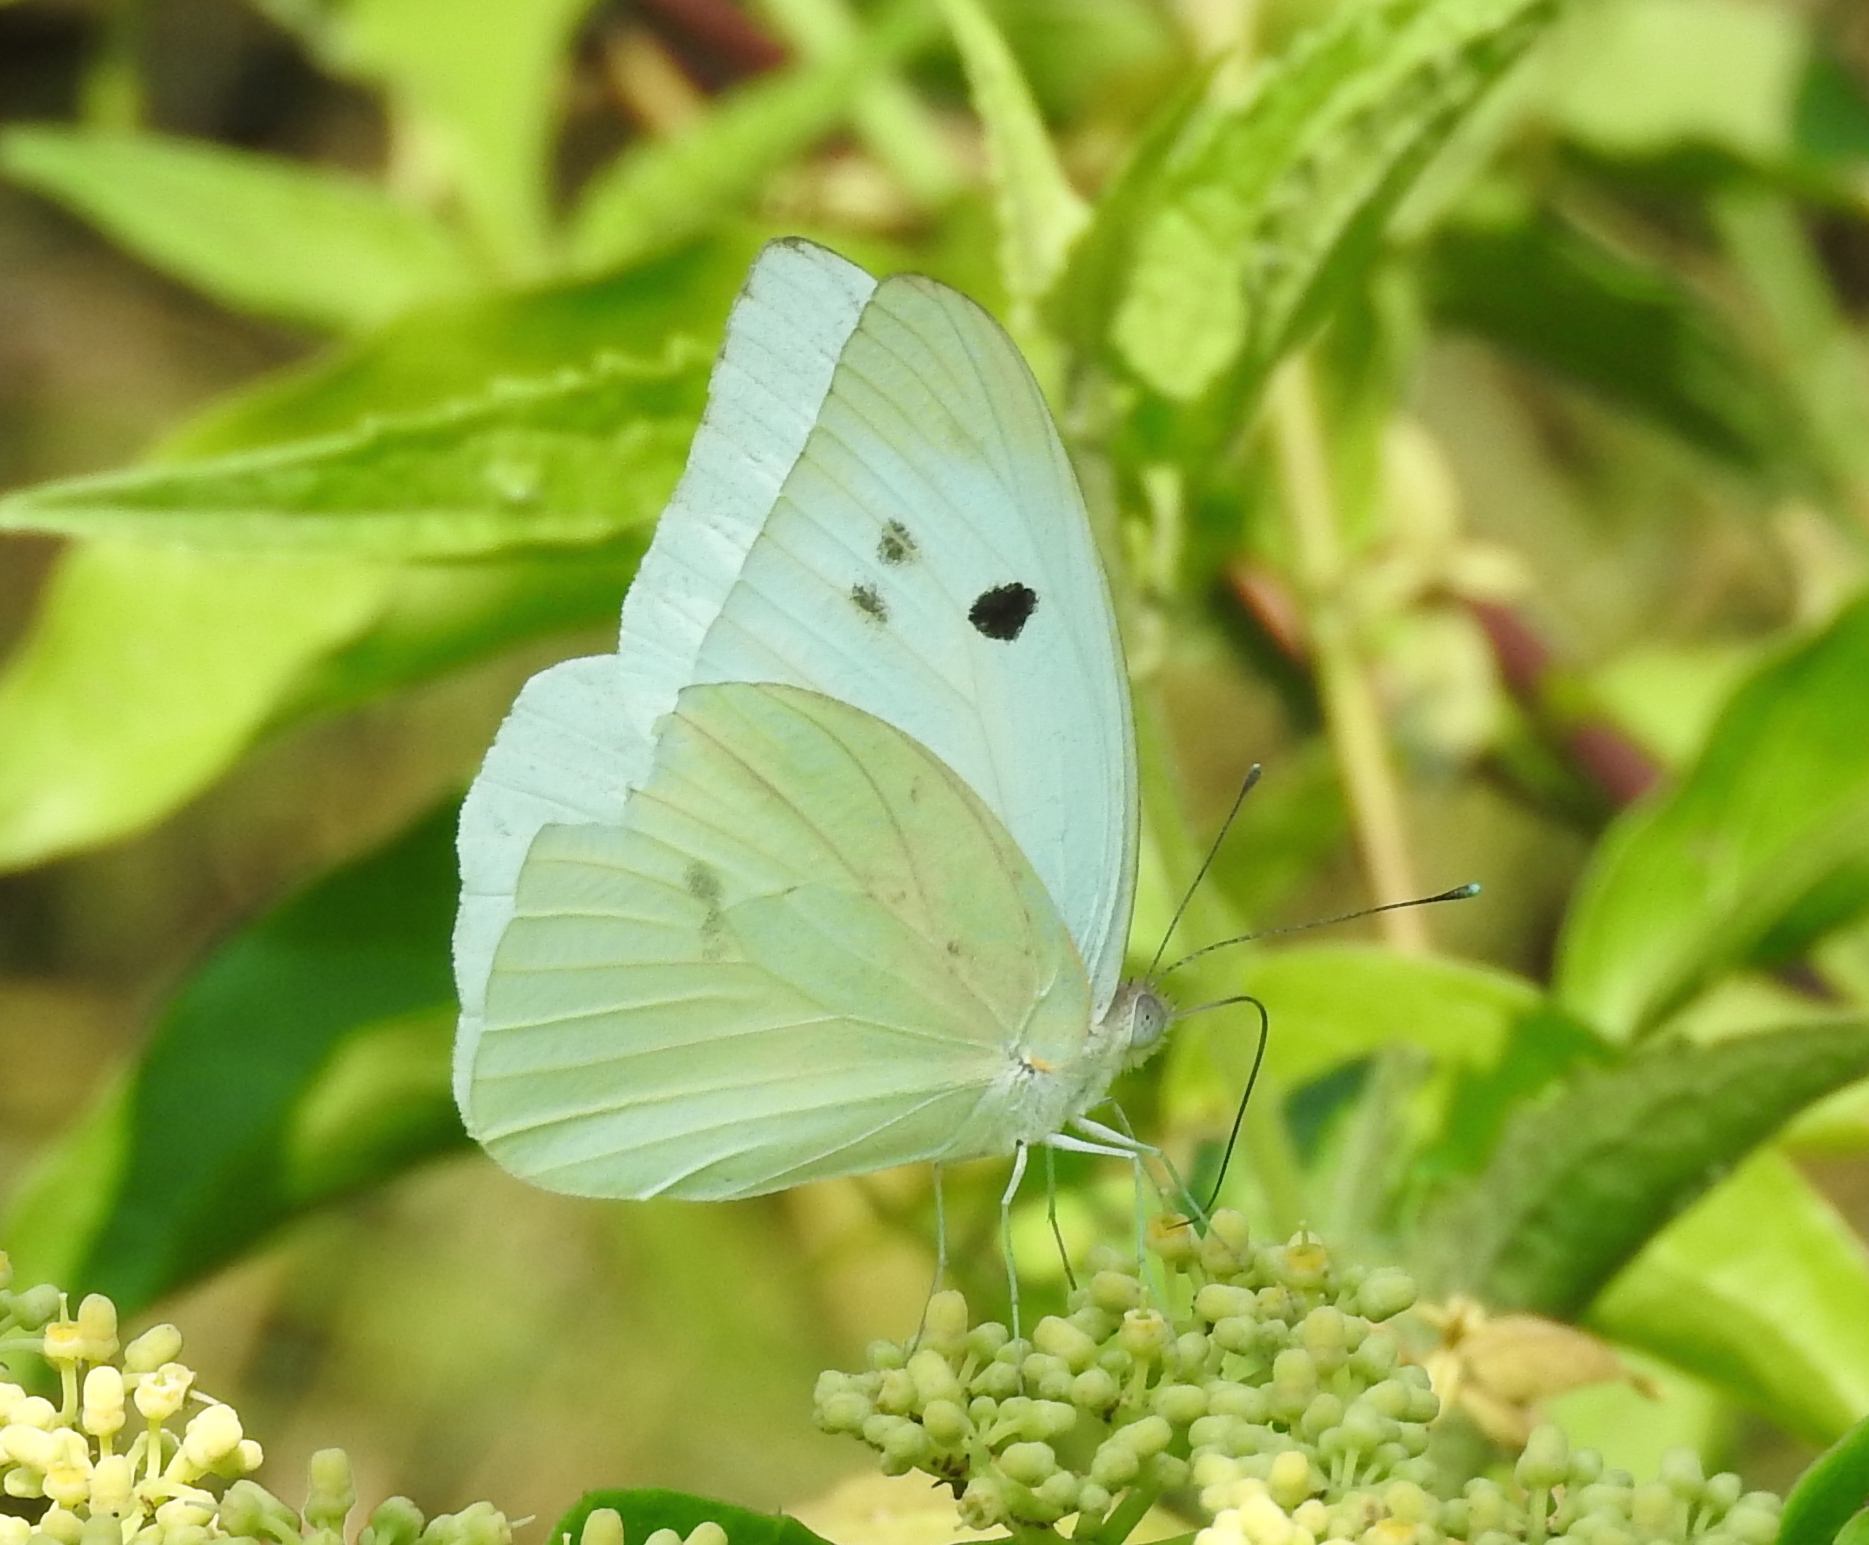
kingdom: Animalia
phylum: Arthropoda
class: Insecta
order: Lepidoptera
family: Pieridae
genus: Ganyra
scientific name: Ganyra josephina
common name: Giant white
